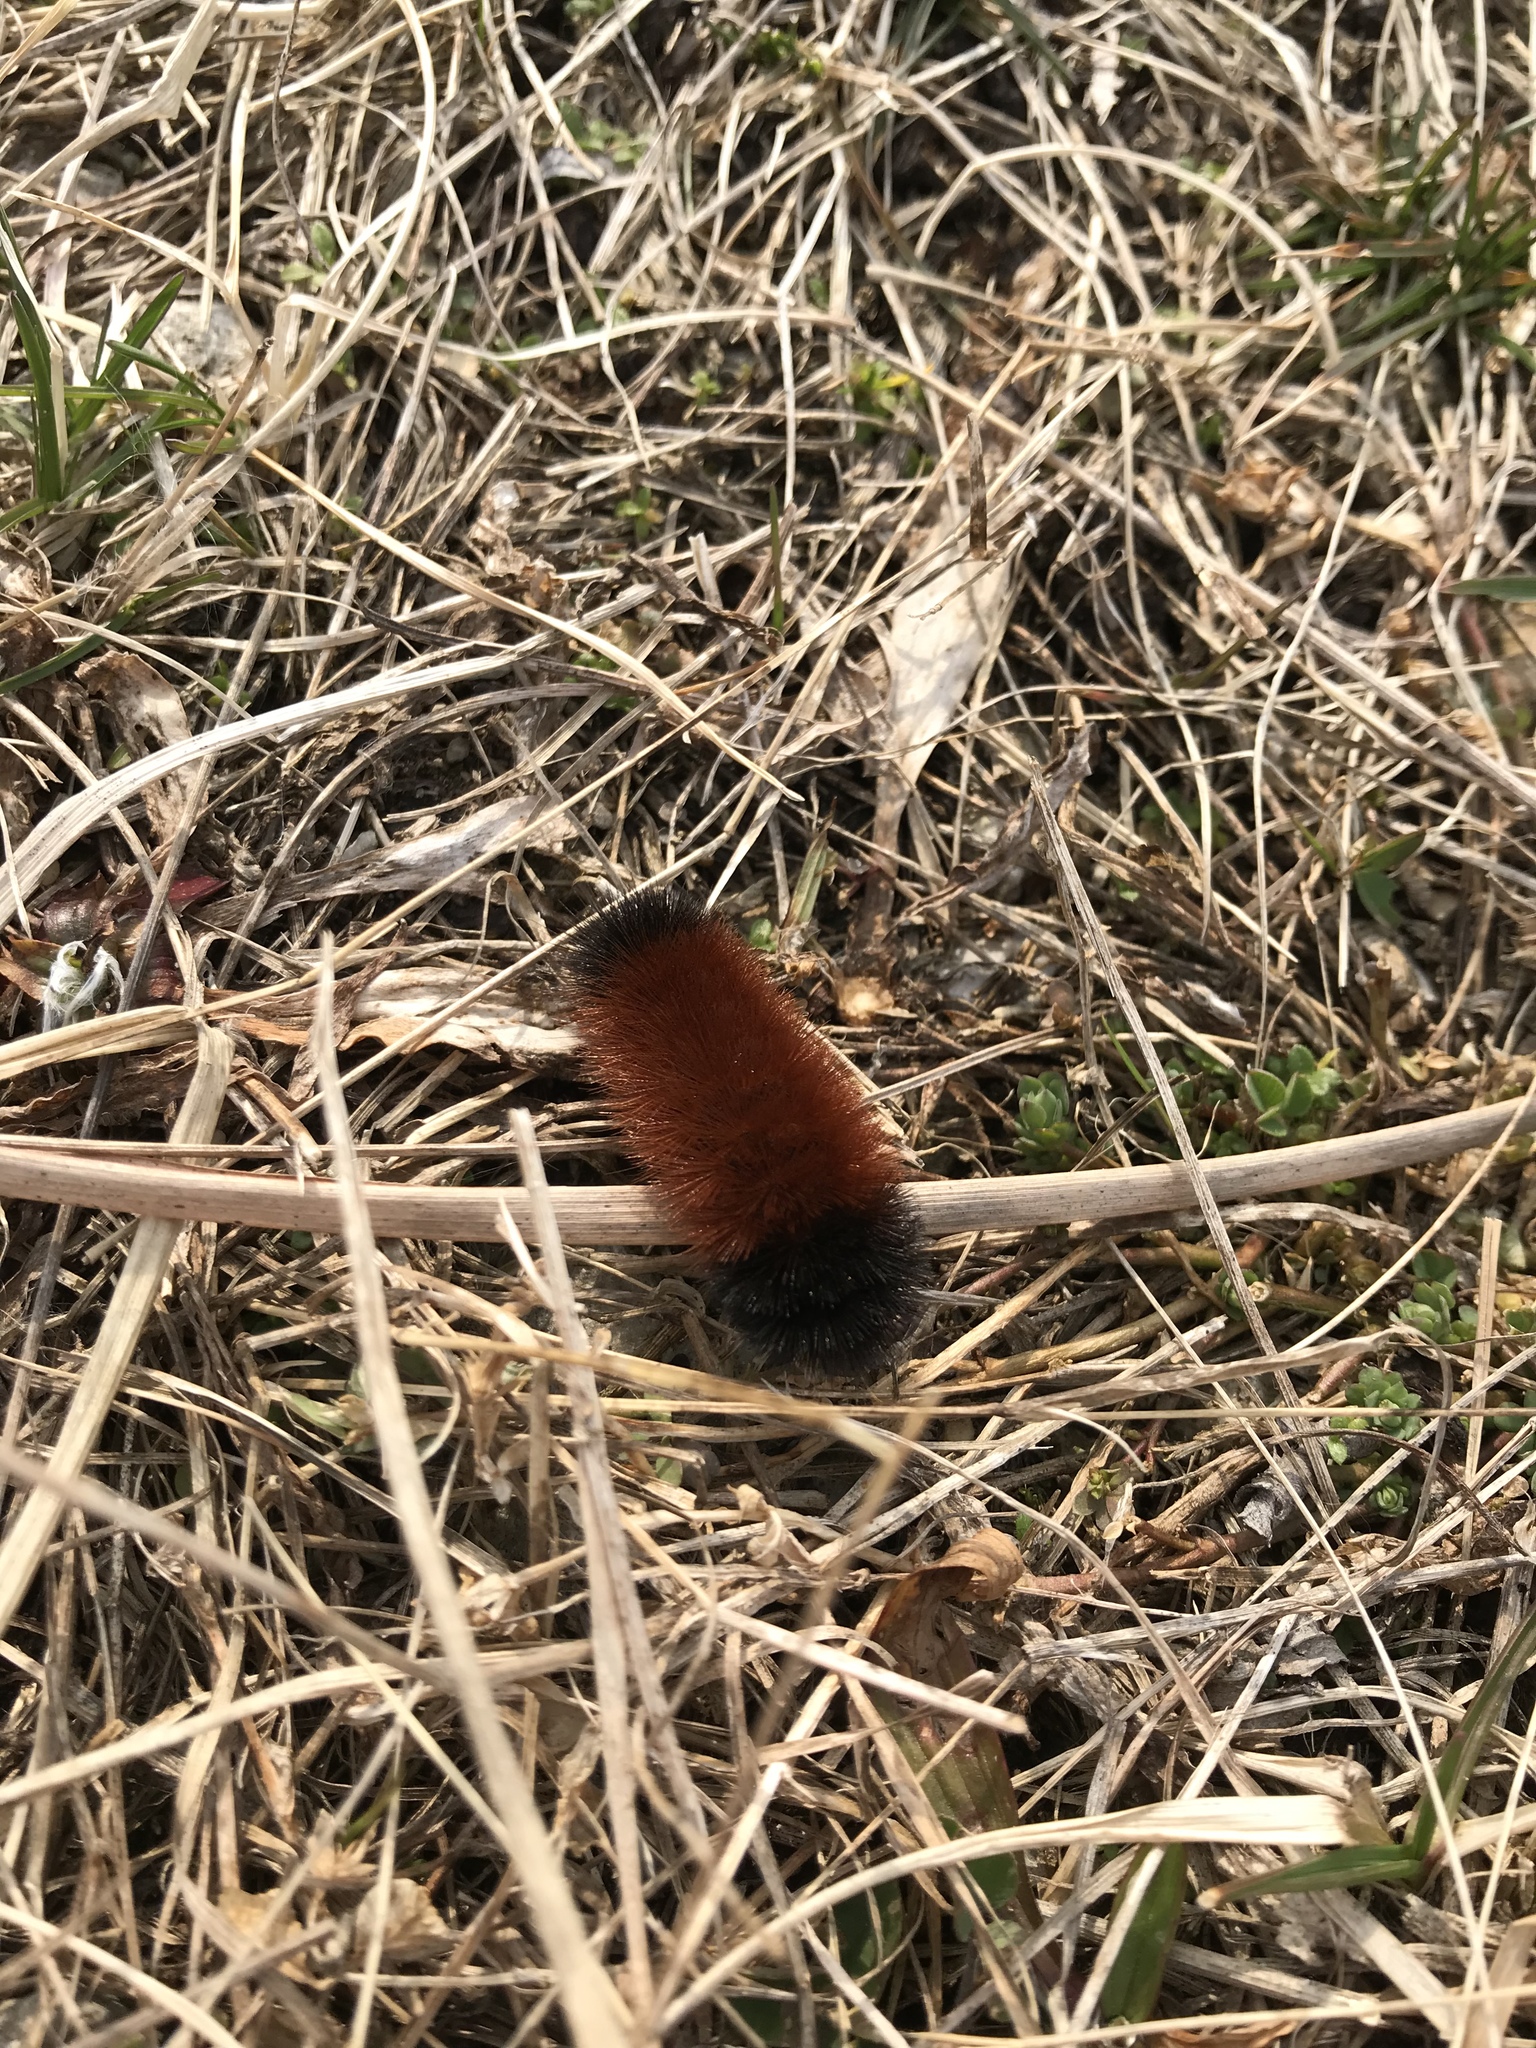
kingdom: Animalia
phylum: Arthropoda
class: Insecta
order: Lepidoptera
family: Erebidae
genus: Pyrrharctia
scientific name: Pyrrharctia isabella
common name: Isabella tiger moth
